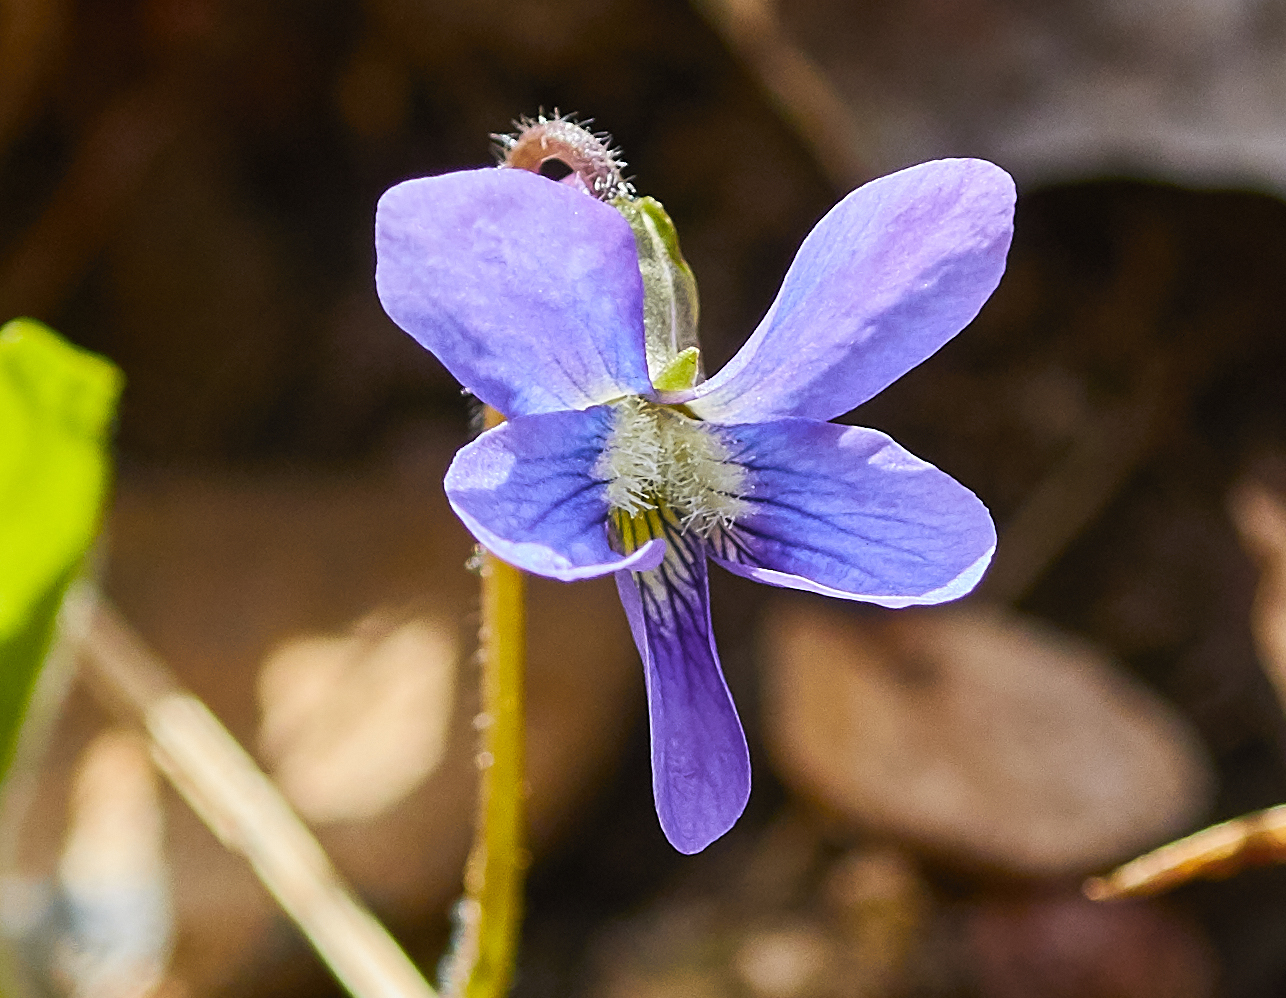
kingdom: Plantae
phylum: Tracheophyta
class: Magnoliopsida
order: Malpighiales
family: Violaceae
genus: Viola
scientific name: Viola sororia
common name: Dooryard violet
